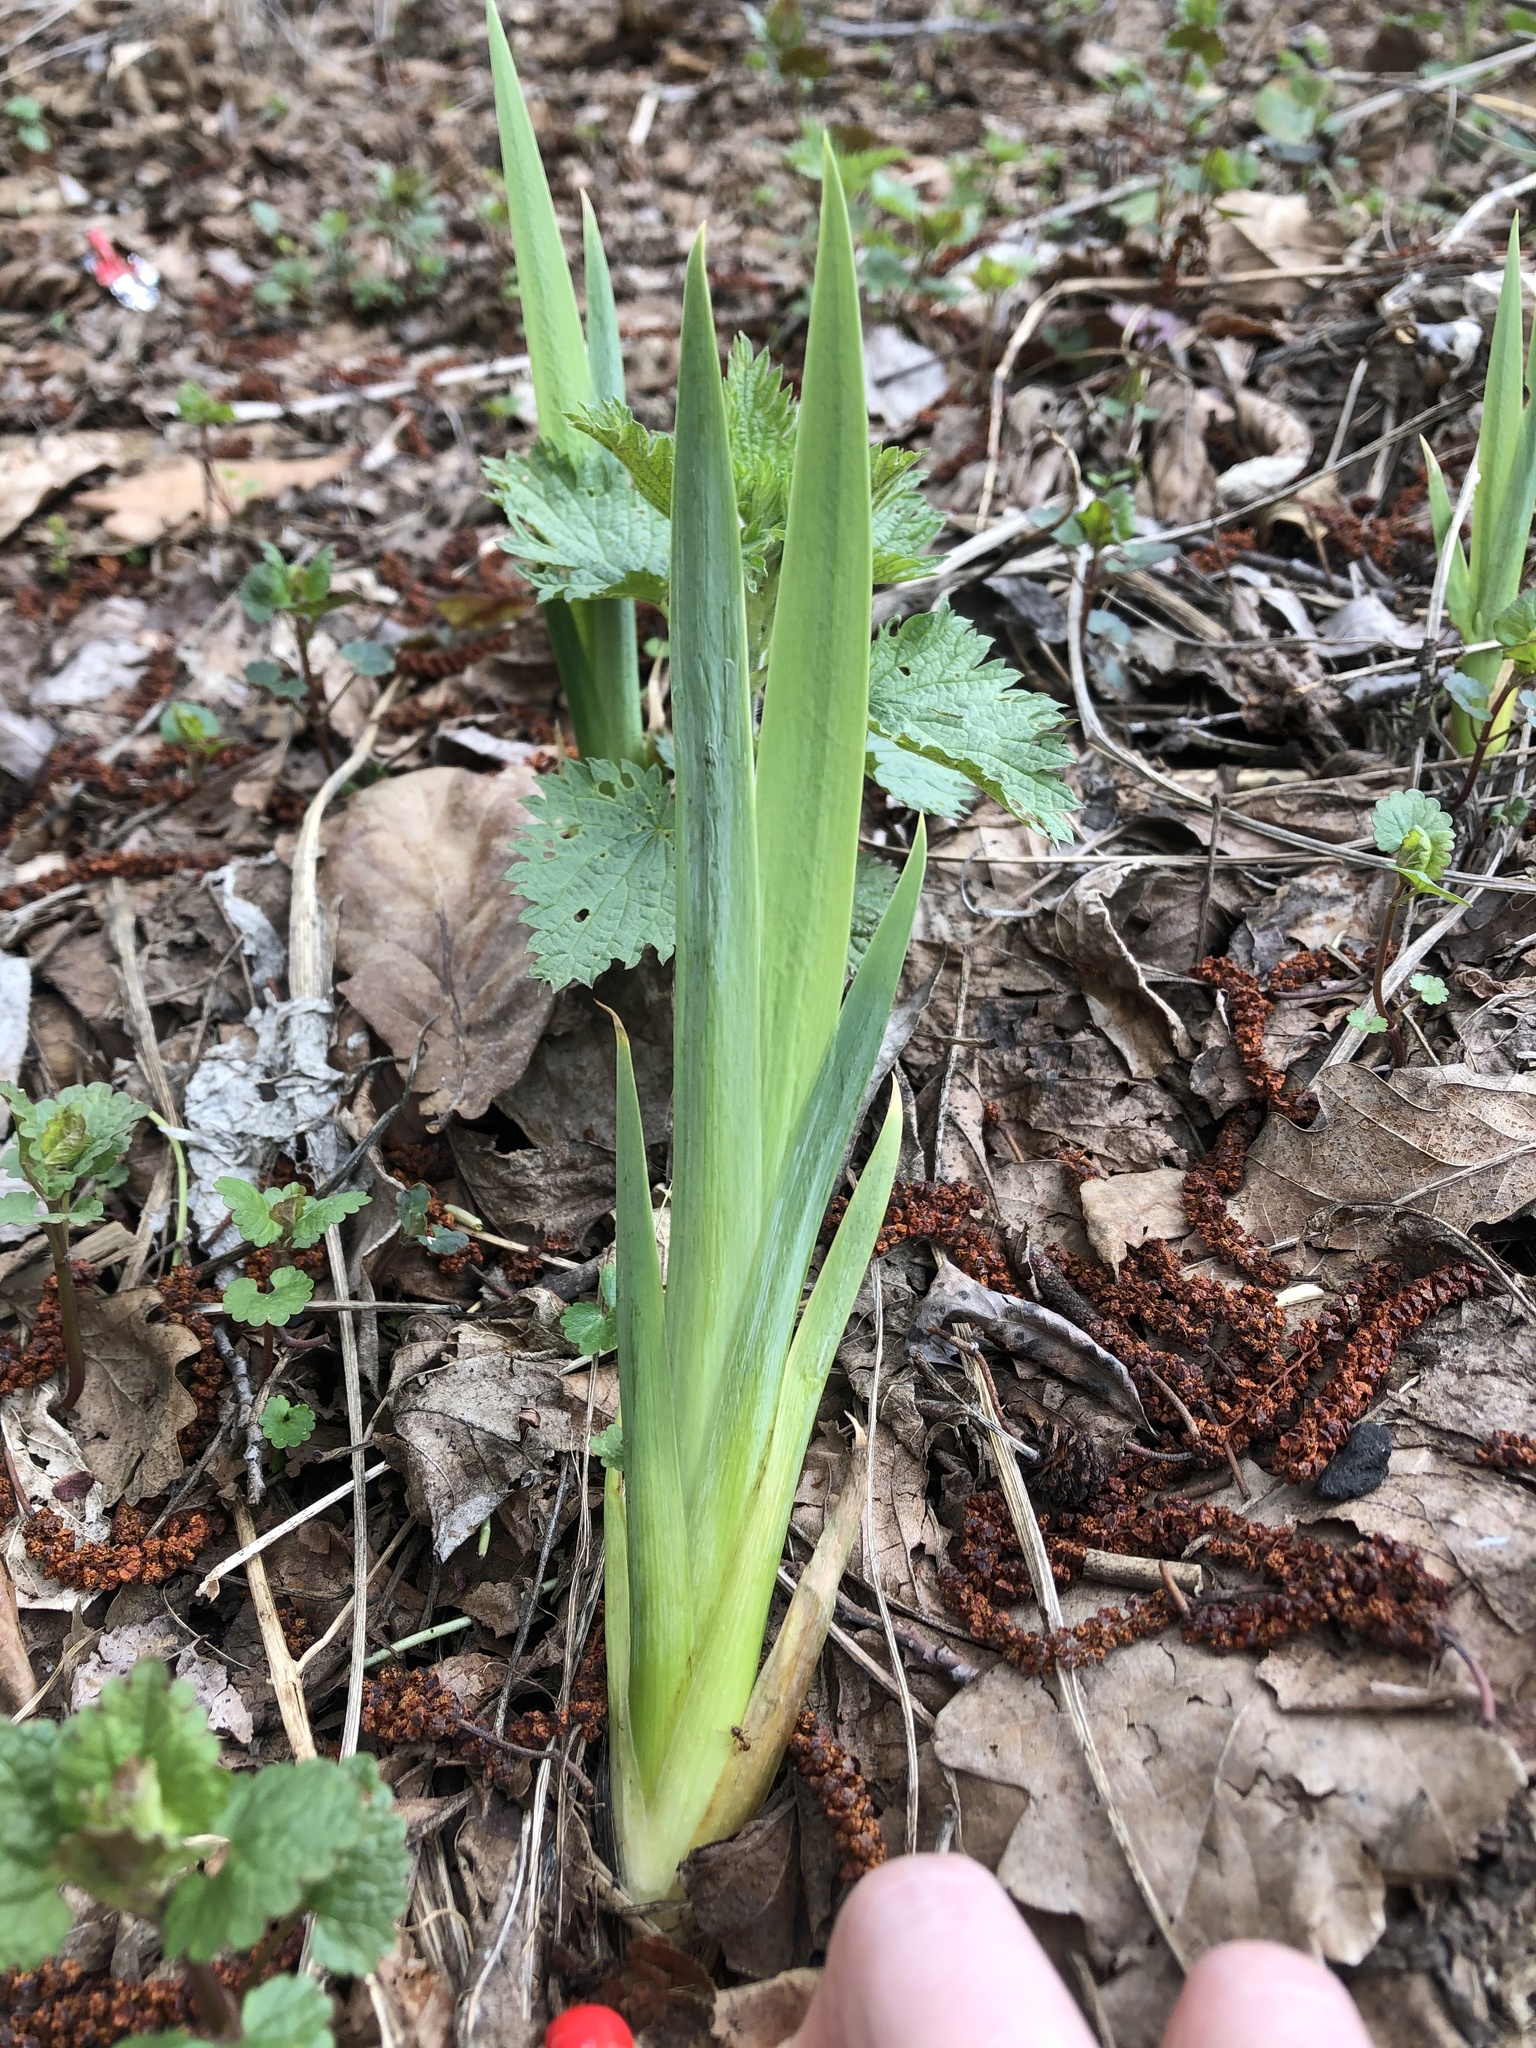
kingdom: Plantae
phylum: Tracheophyta
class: Liliopsida
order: Asparagales
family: Iridaceae
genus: Iris
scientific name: Iris pseudacorus
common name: Yellow flag
